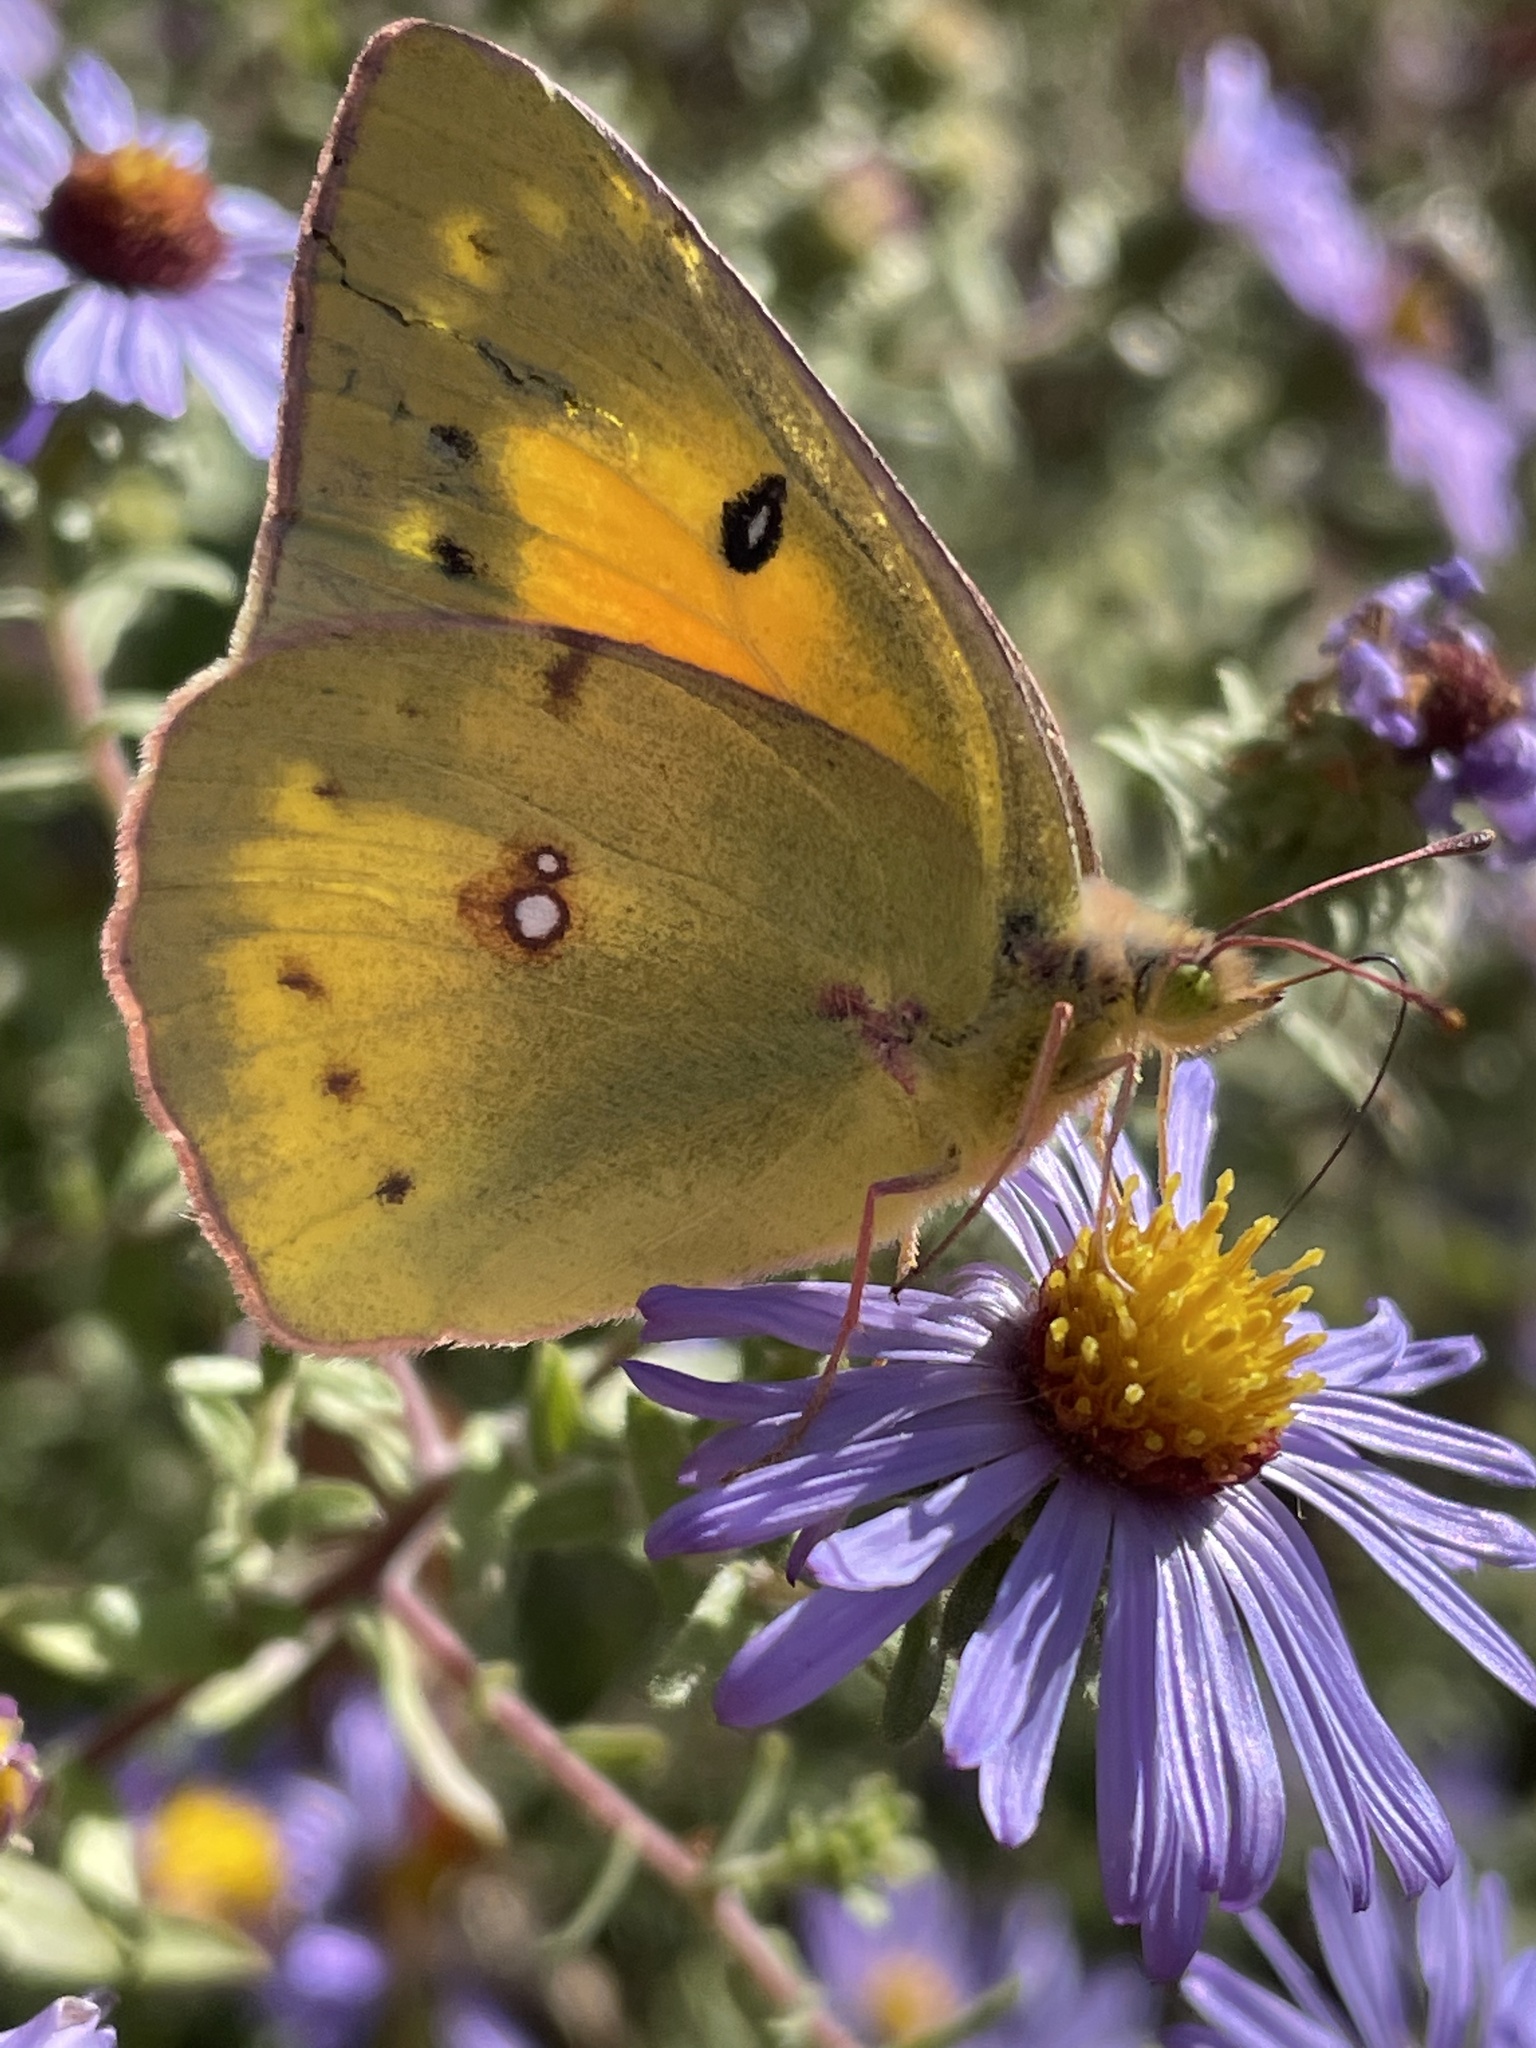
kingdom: Animalia
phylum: Arthropoda
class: Insecta
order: Lepidoptera
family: Pieridae
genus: Colias
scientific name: Colias eurytheme
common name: Alfalfa butterfly
